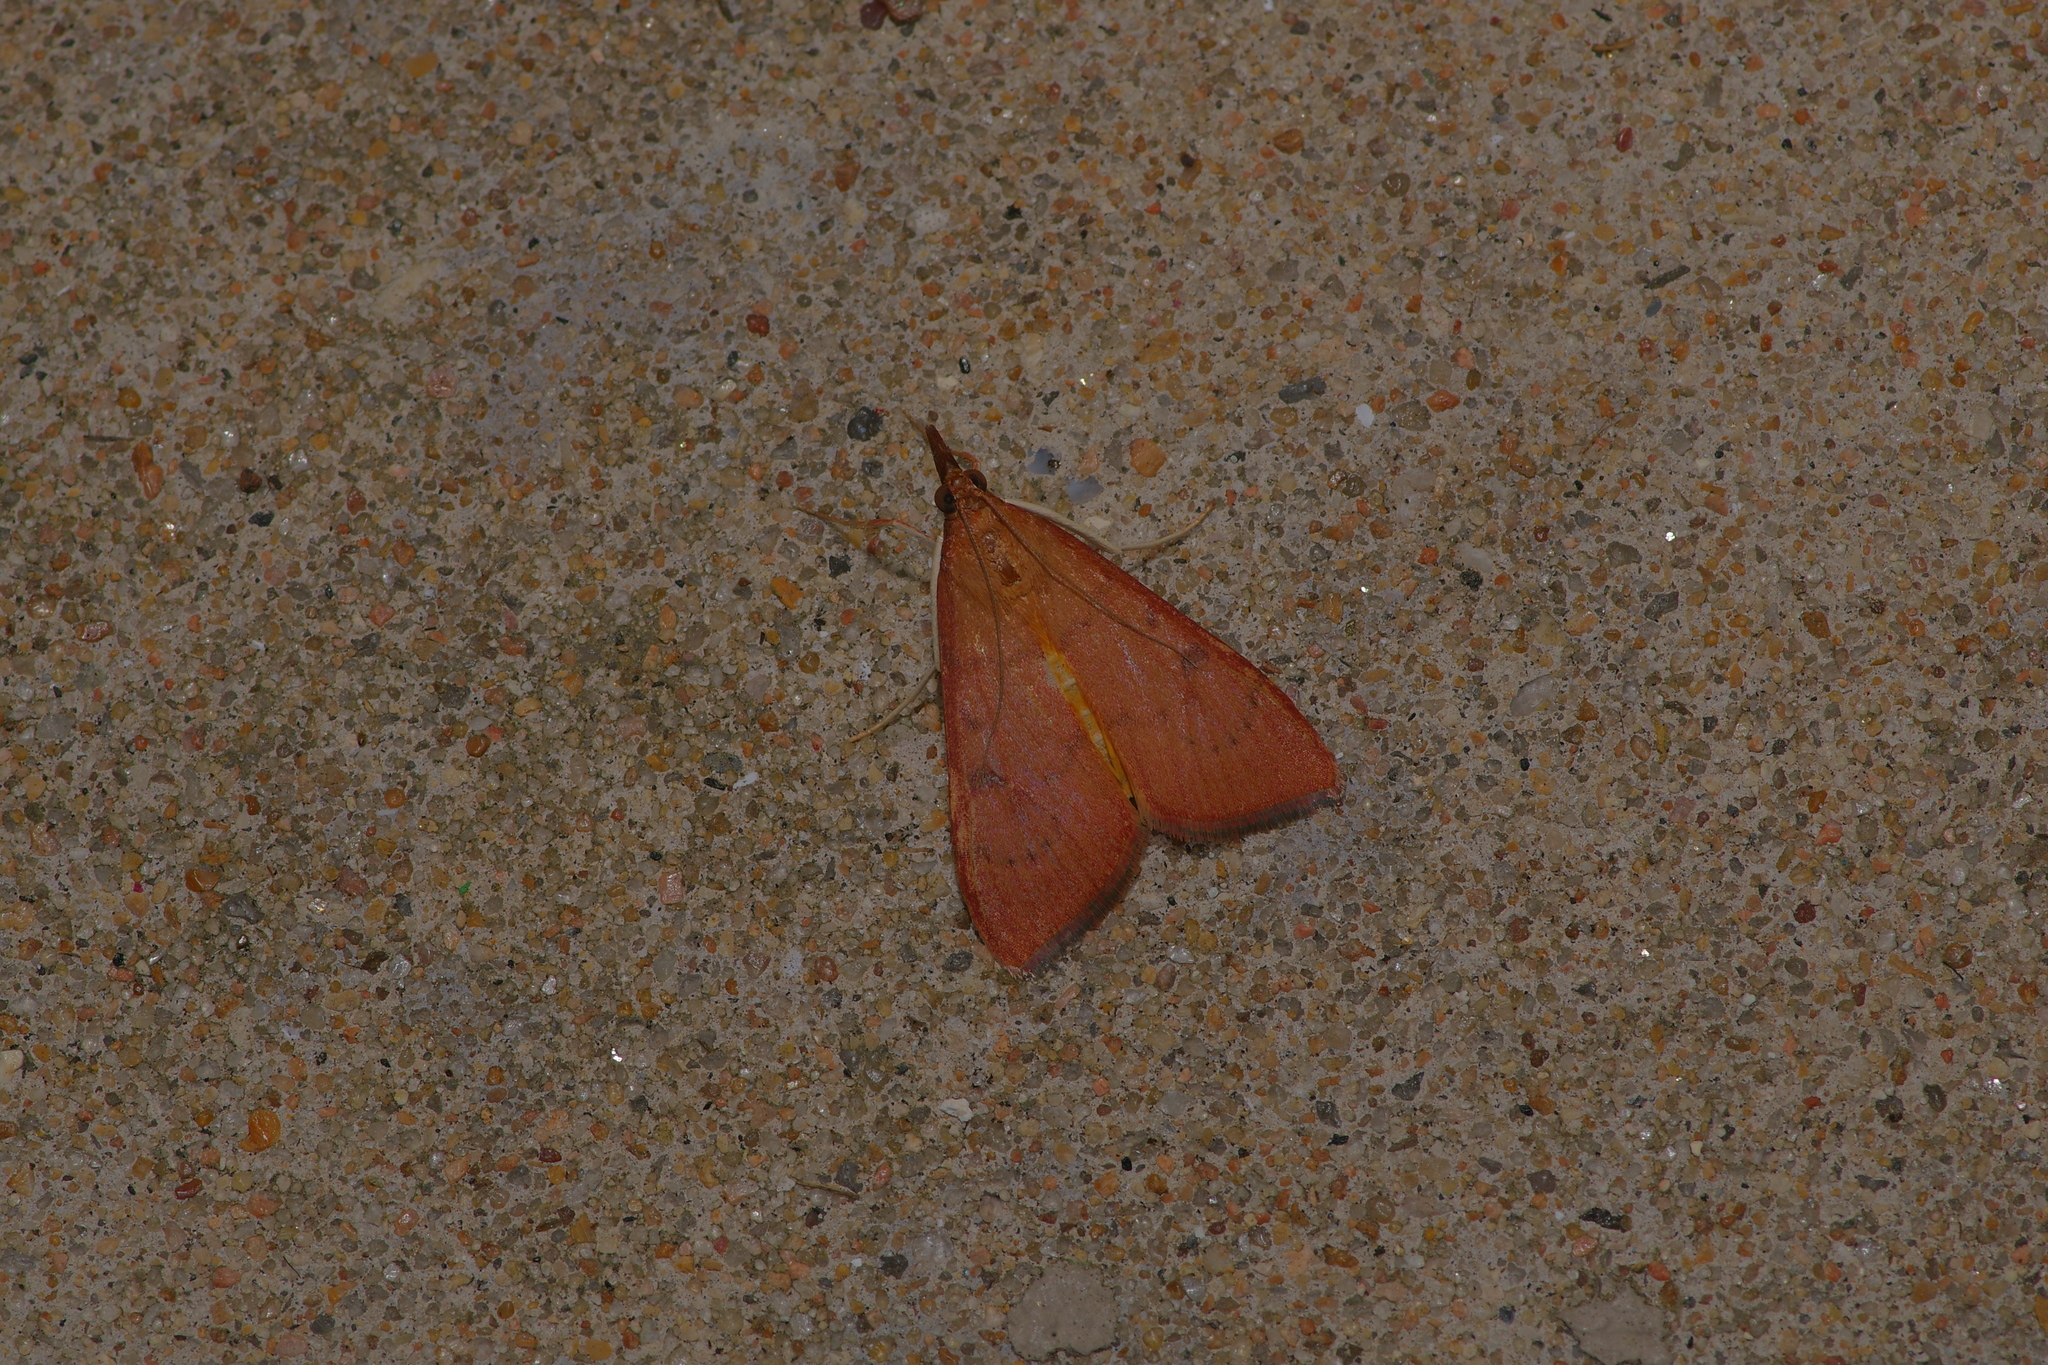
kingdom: Animalia
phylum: Arthropoda
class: Insecta
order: Lepidoptera
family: Crambidae
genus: Uresiphita
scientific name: Uresiphita reversalis
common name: Genista broom moth
